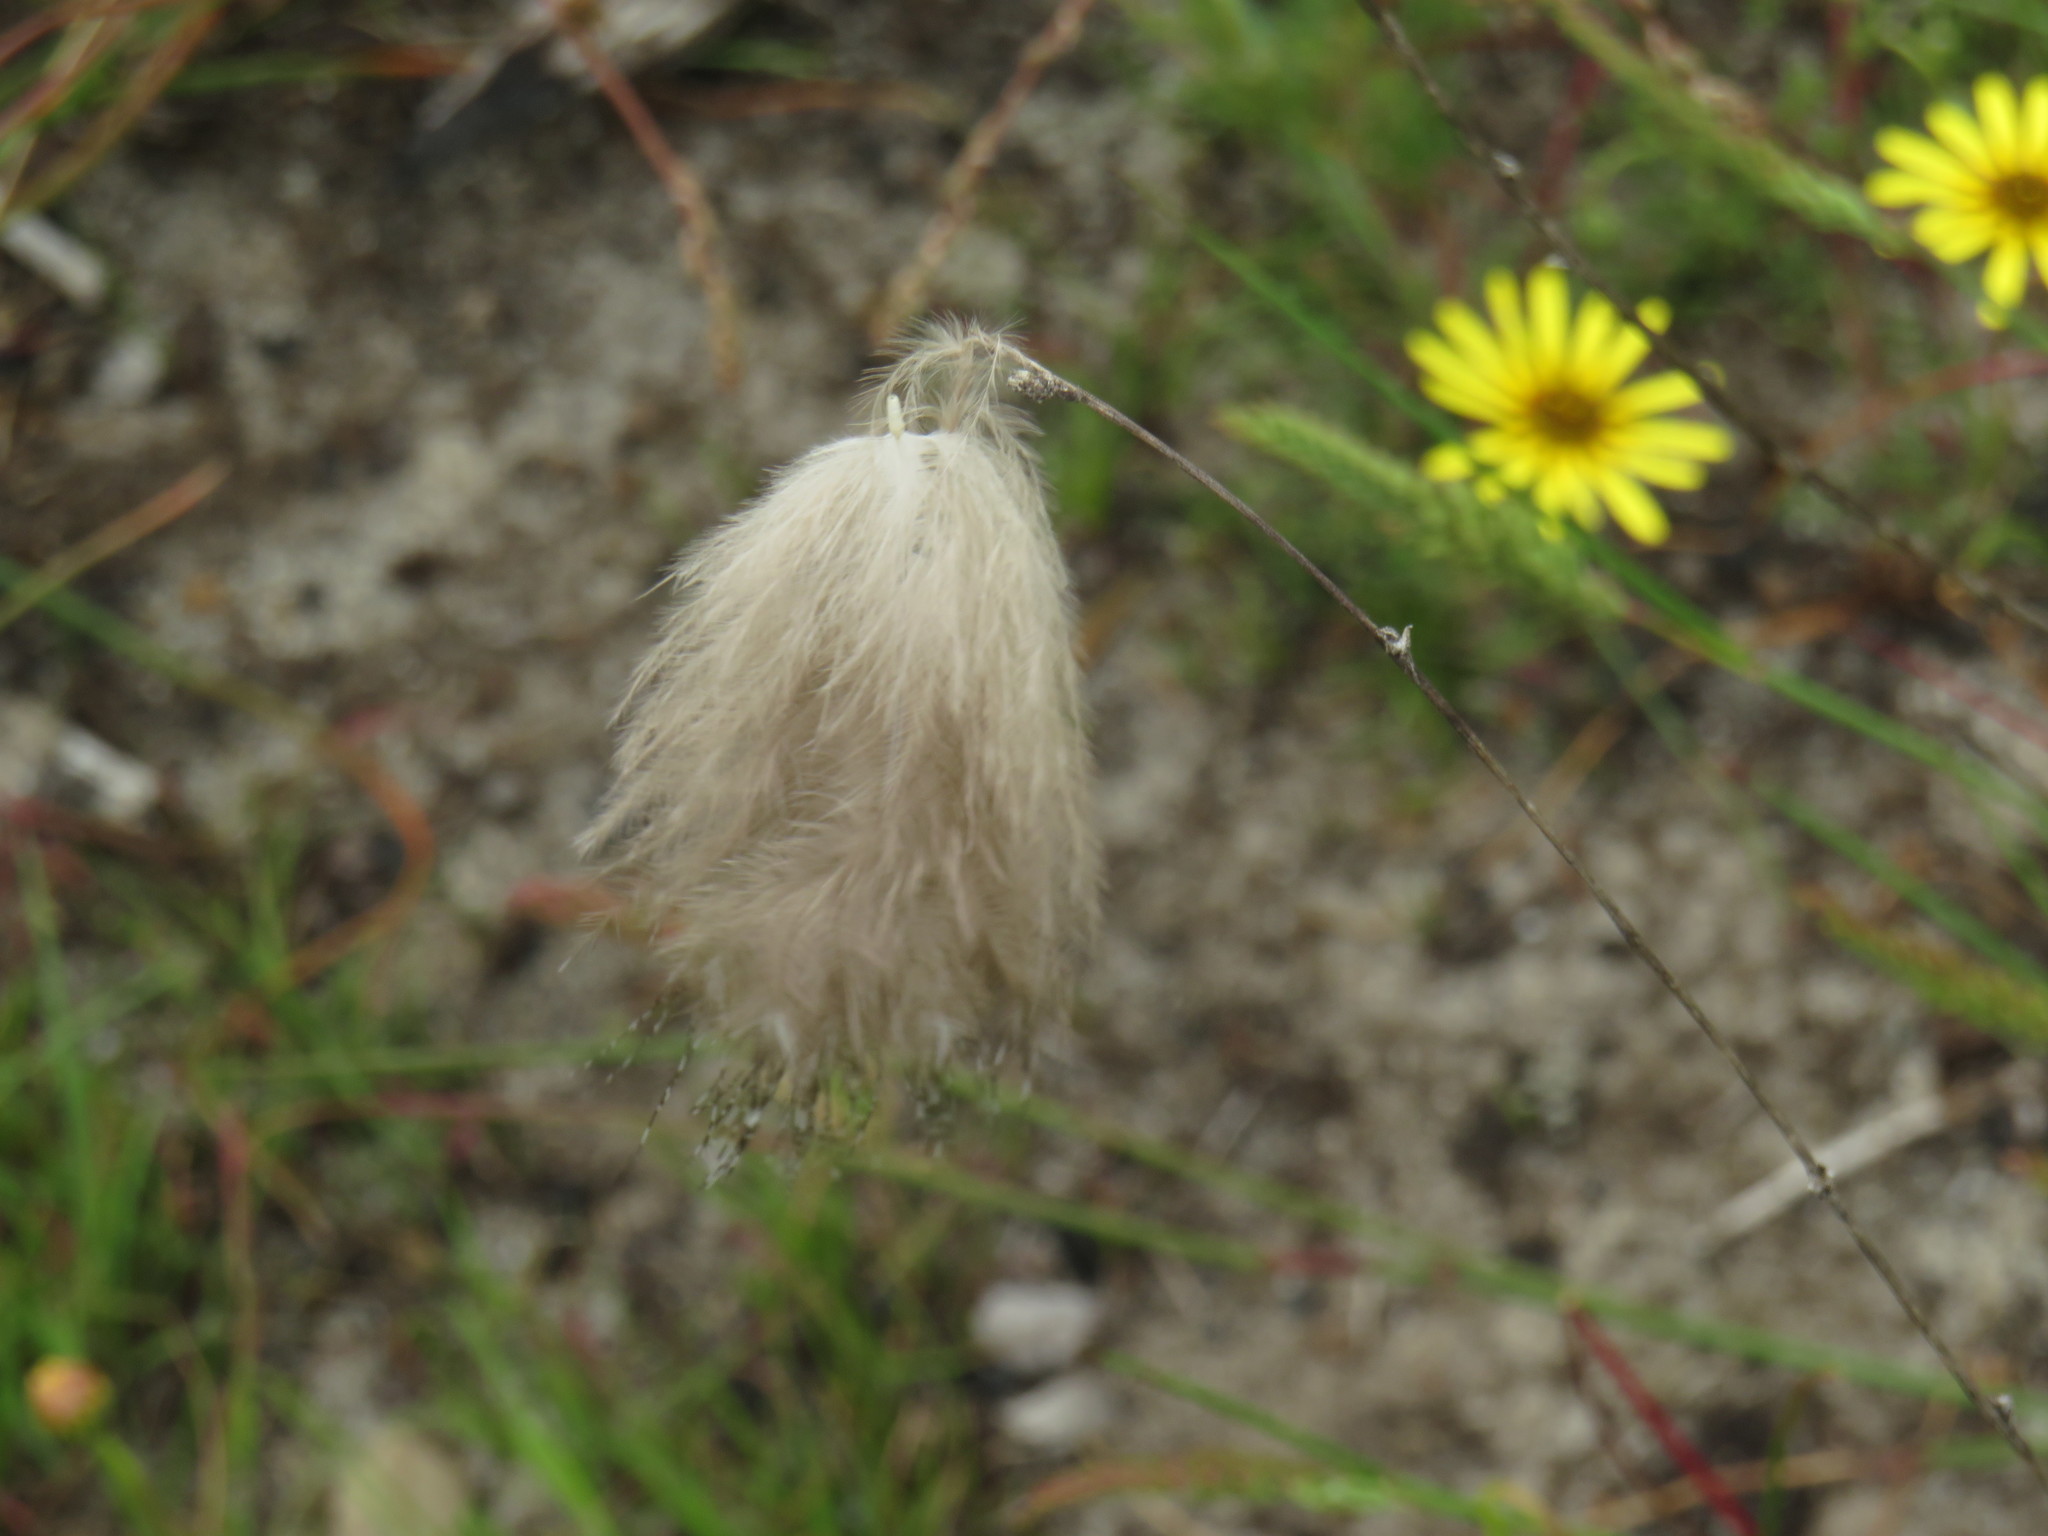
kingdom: Animalia
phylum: Chordata
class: Aves
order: Galliformes
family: Numididae
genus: Numida
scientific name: Numida meleagris
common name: Helmeted guineafowl
